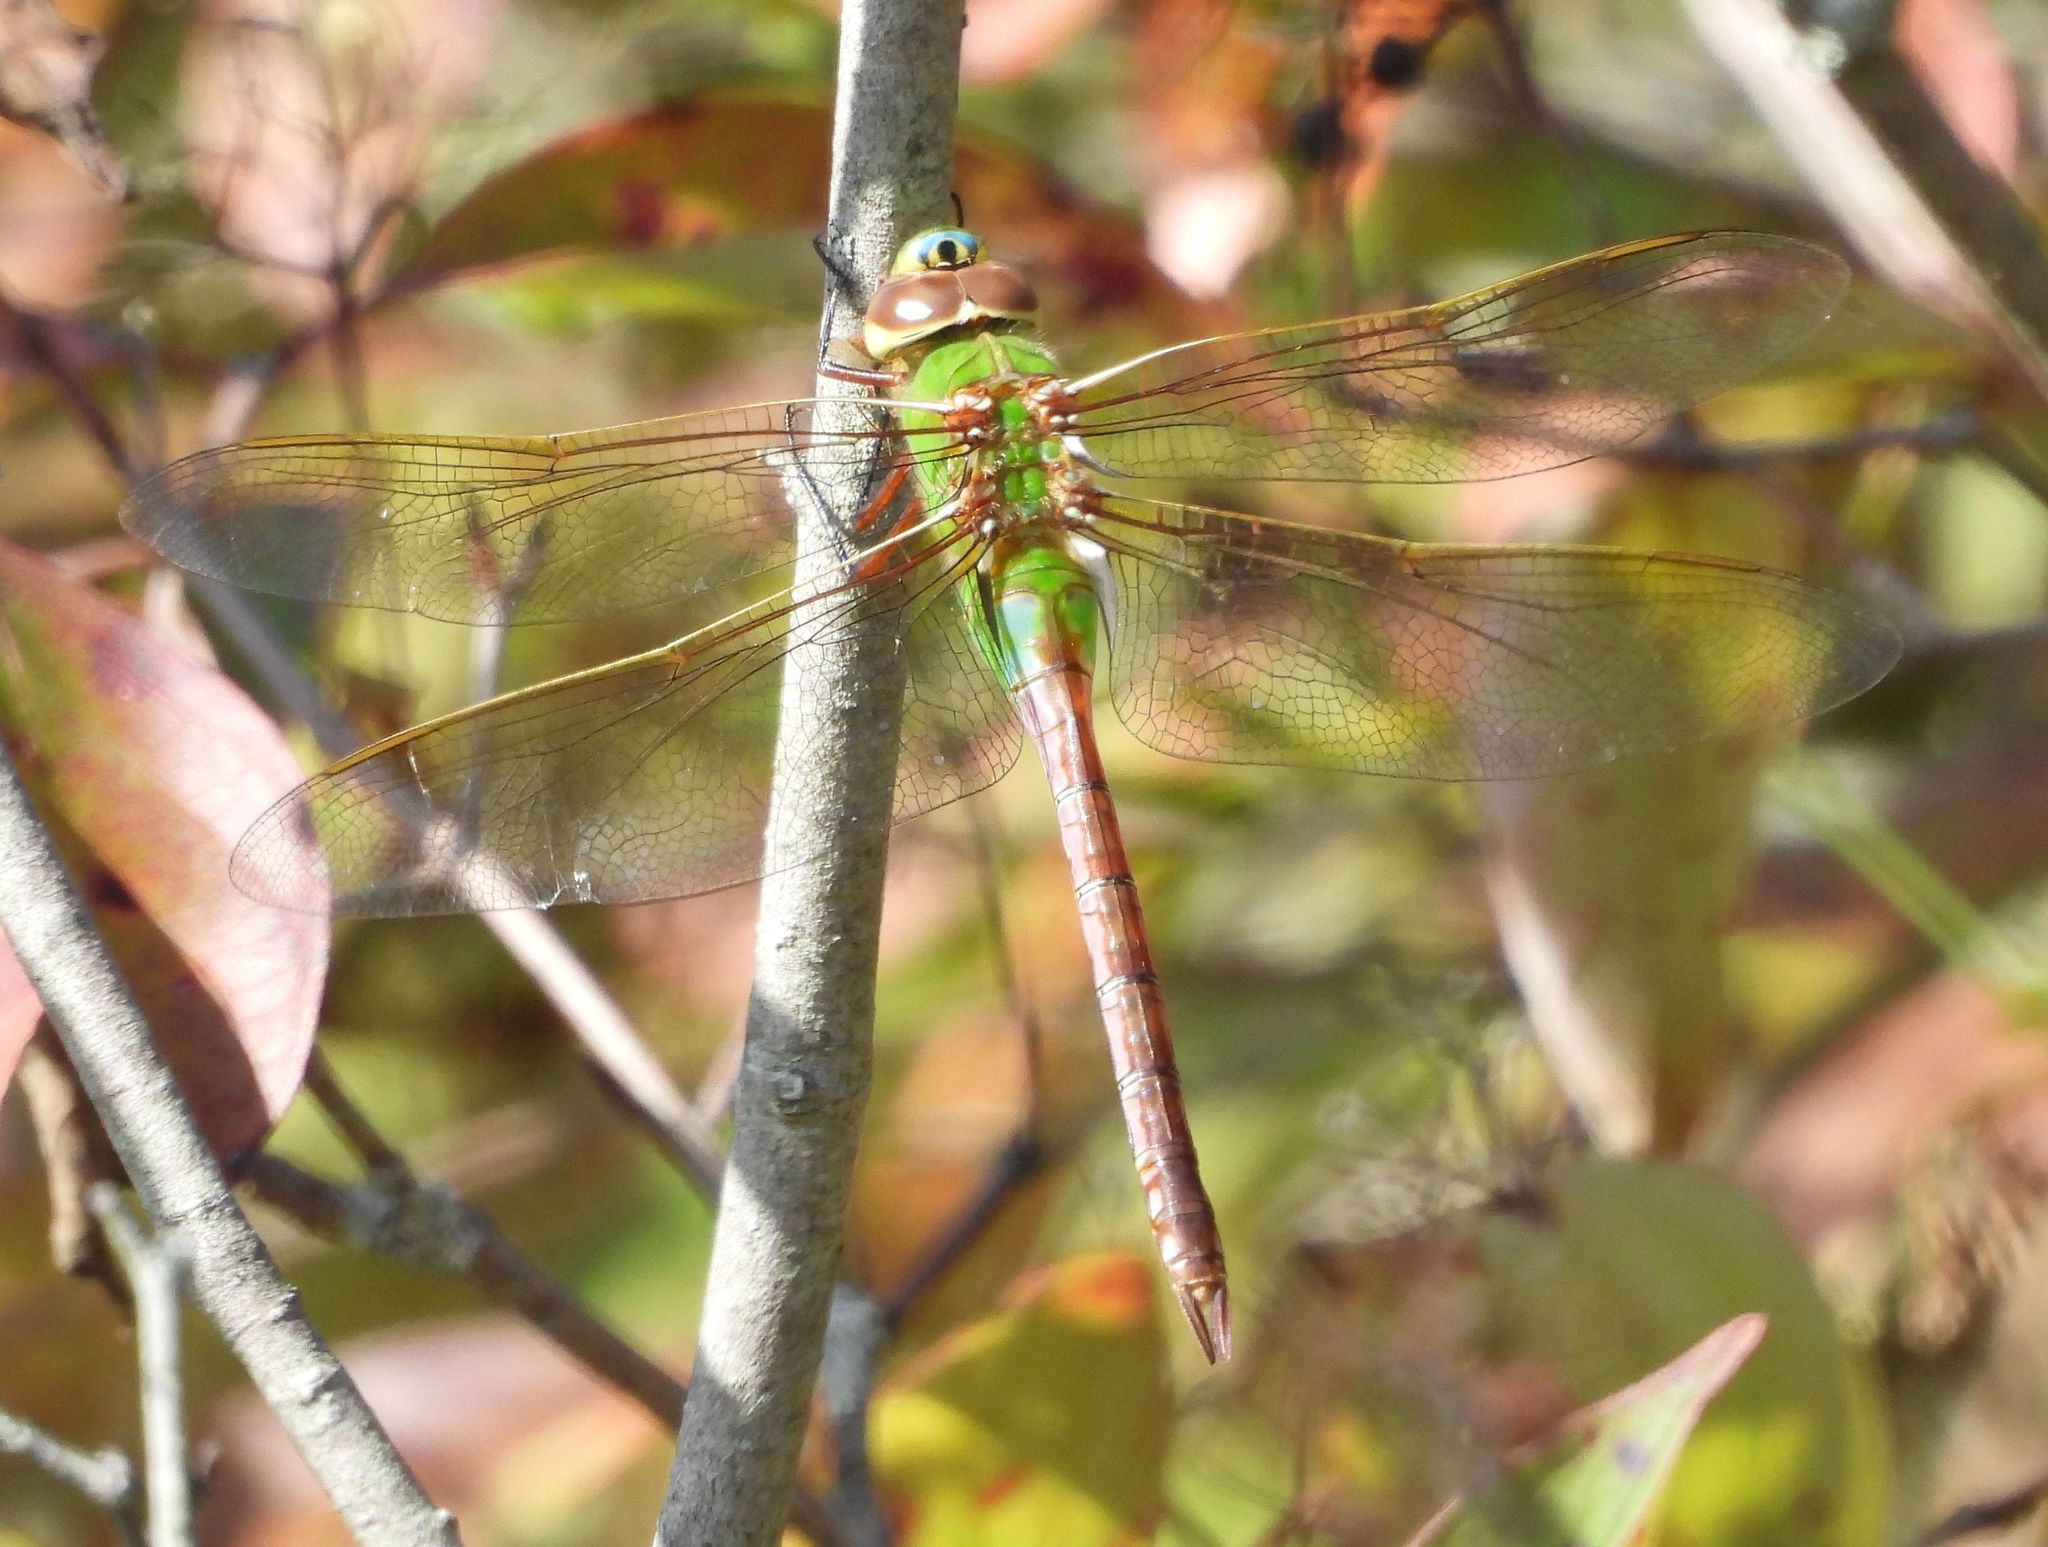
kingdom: Animalia
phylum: Arthropoda
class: Insecta
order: Odonata
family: Aeshnidae
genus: Anax
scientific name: Anax junius
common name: Common green darner
